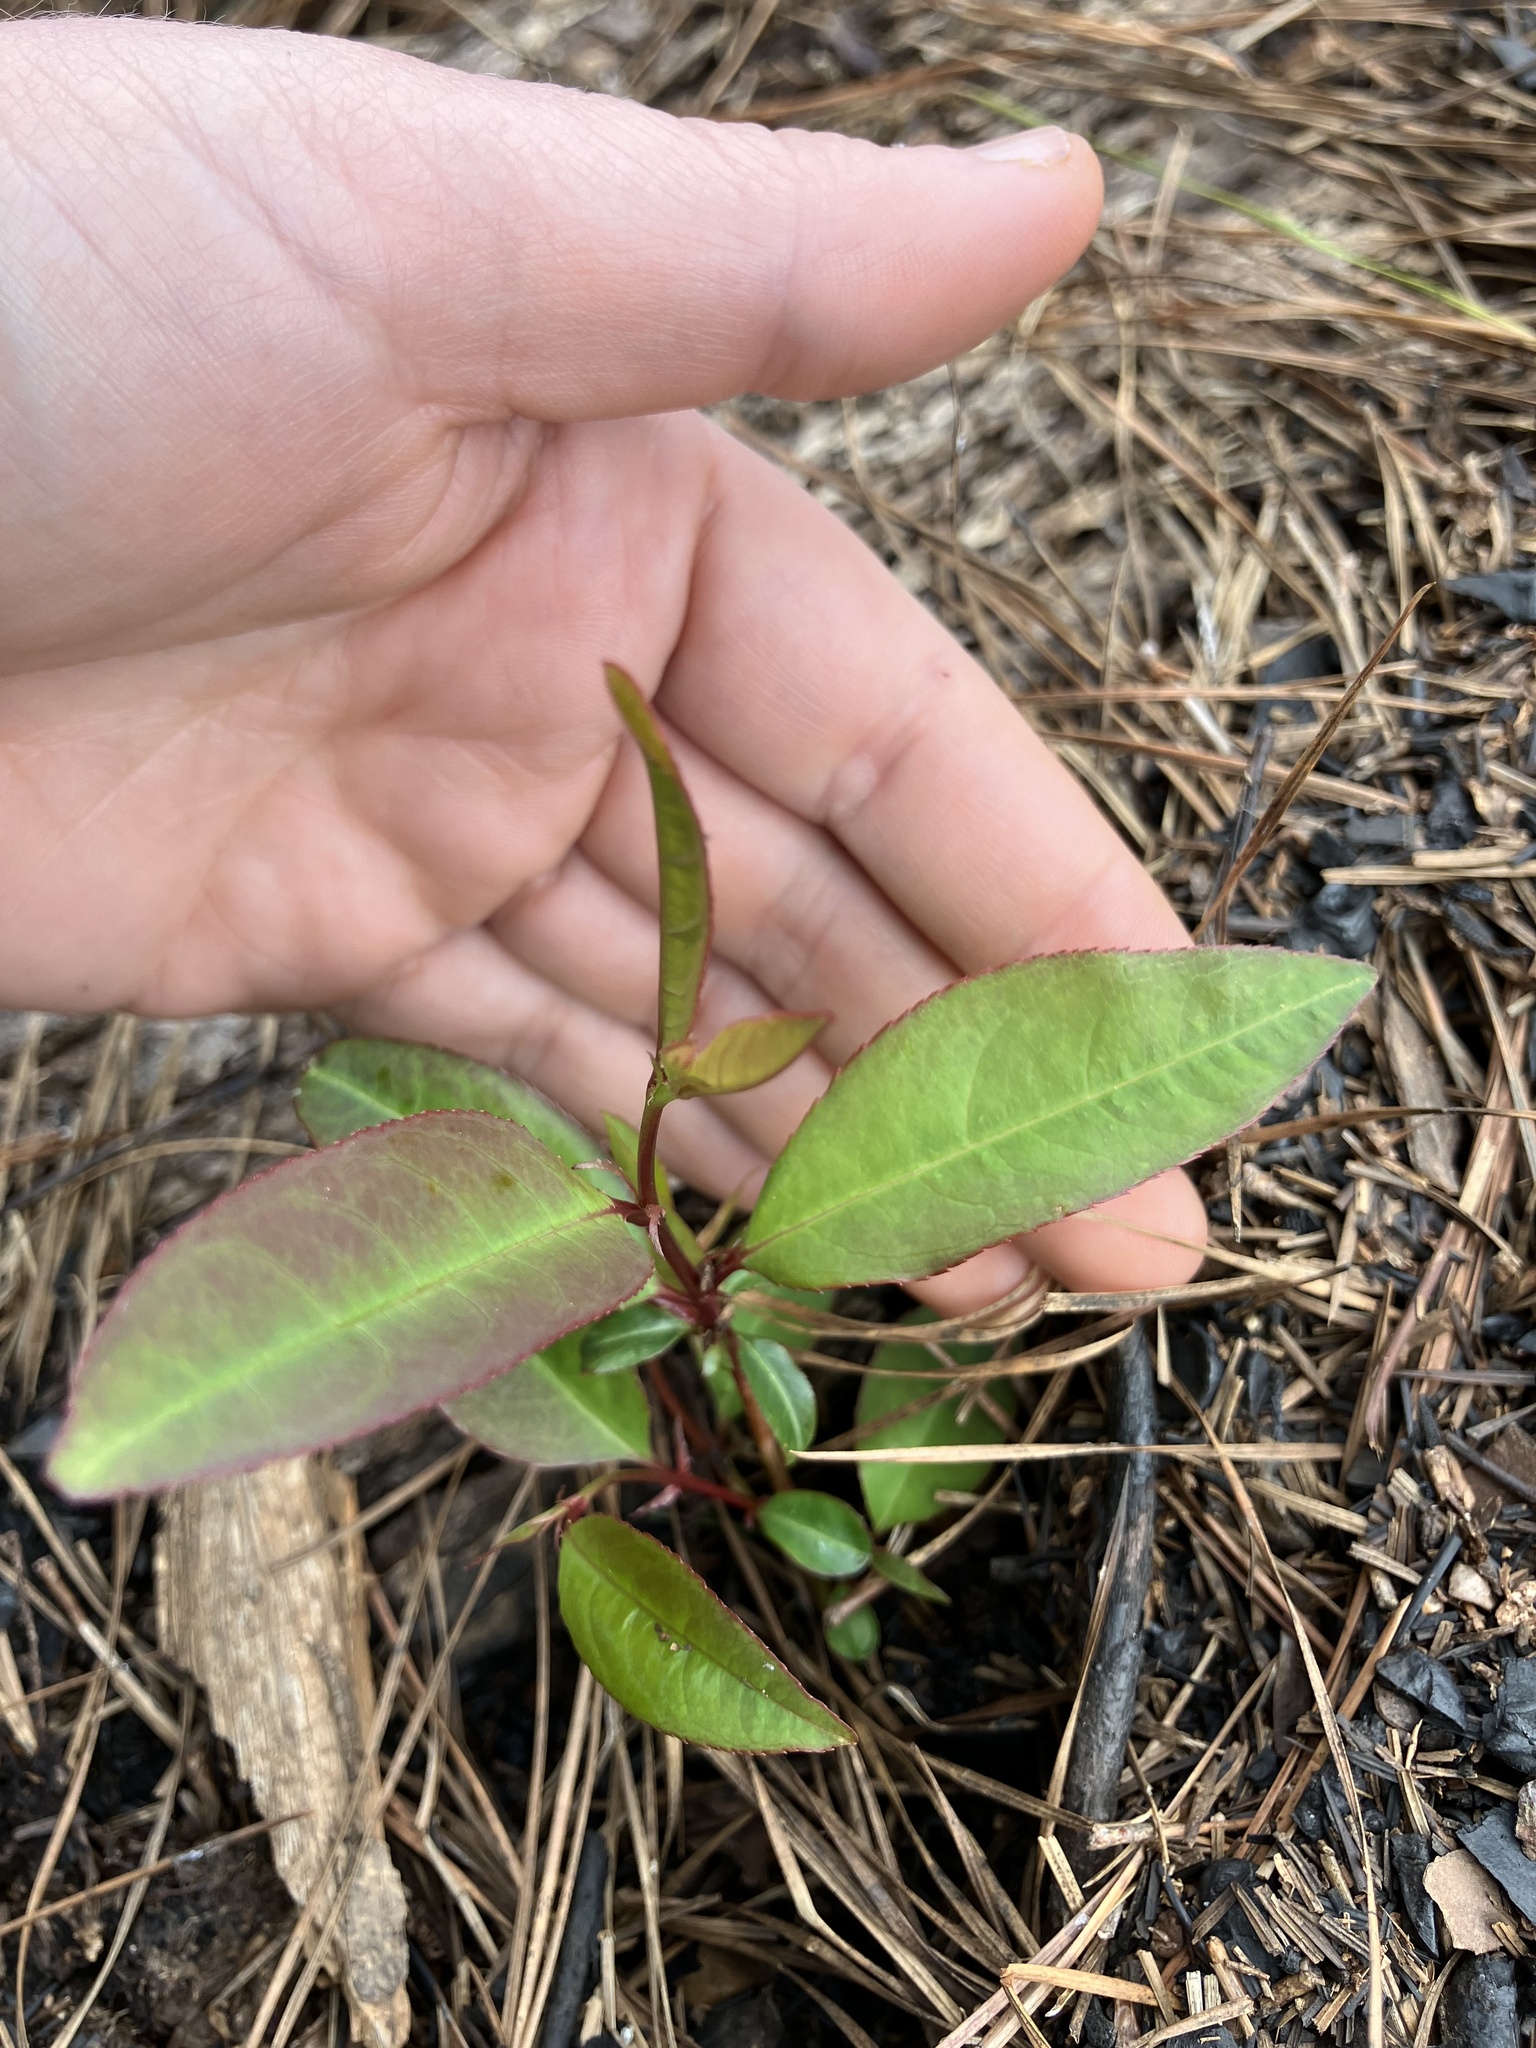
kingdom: Plantae
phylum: Tracheophyta
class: Magnoliopsida
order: Rosales
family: Rosaceae
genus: Prunus
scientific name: Prunus serotina
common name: Black cherry
